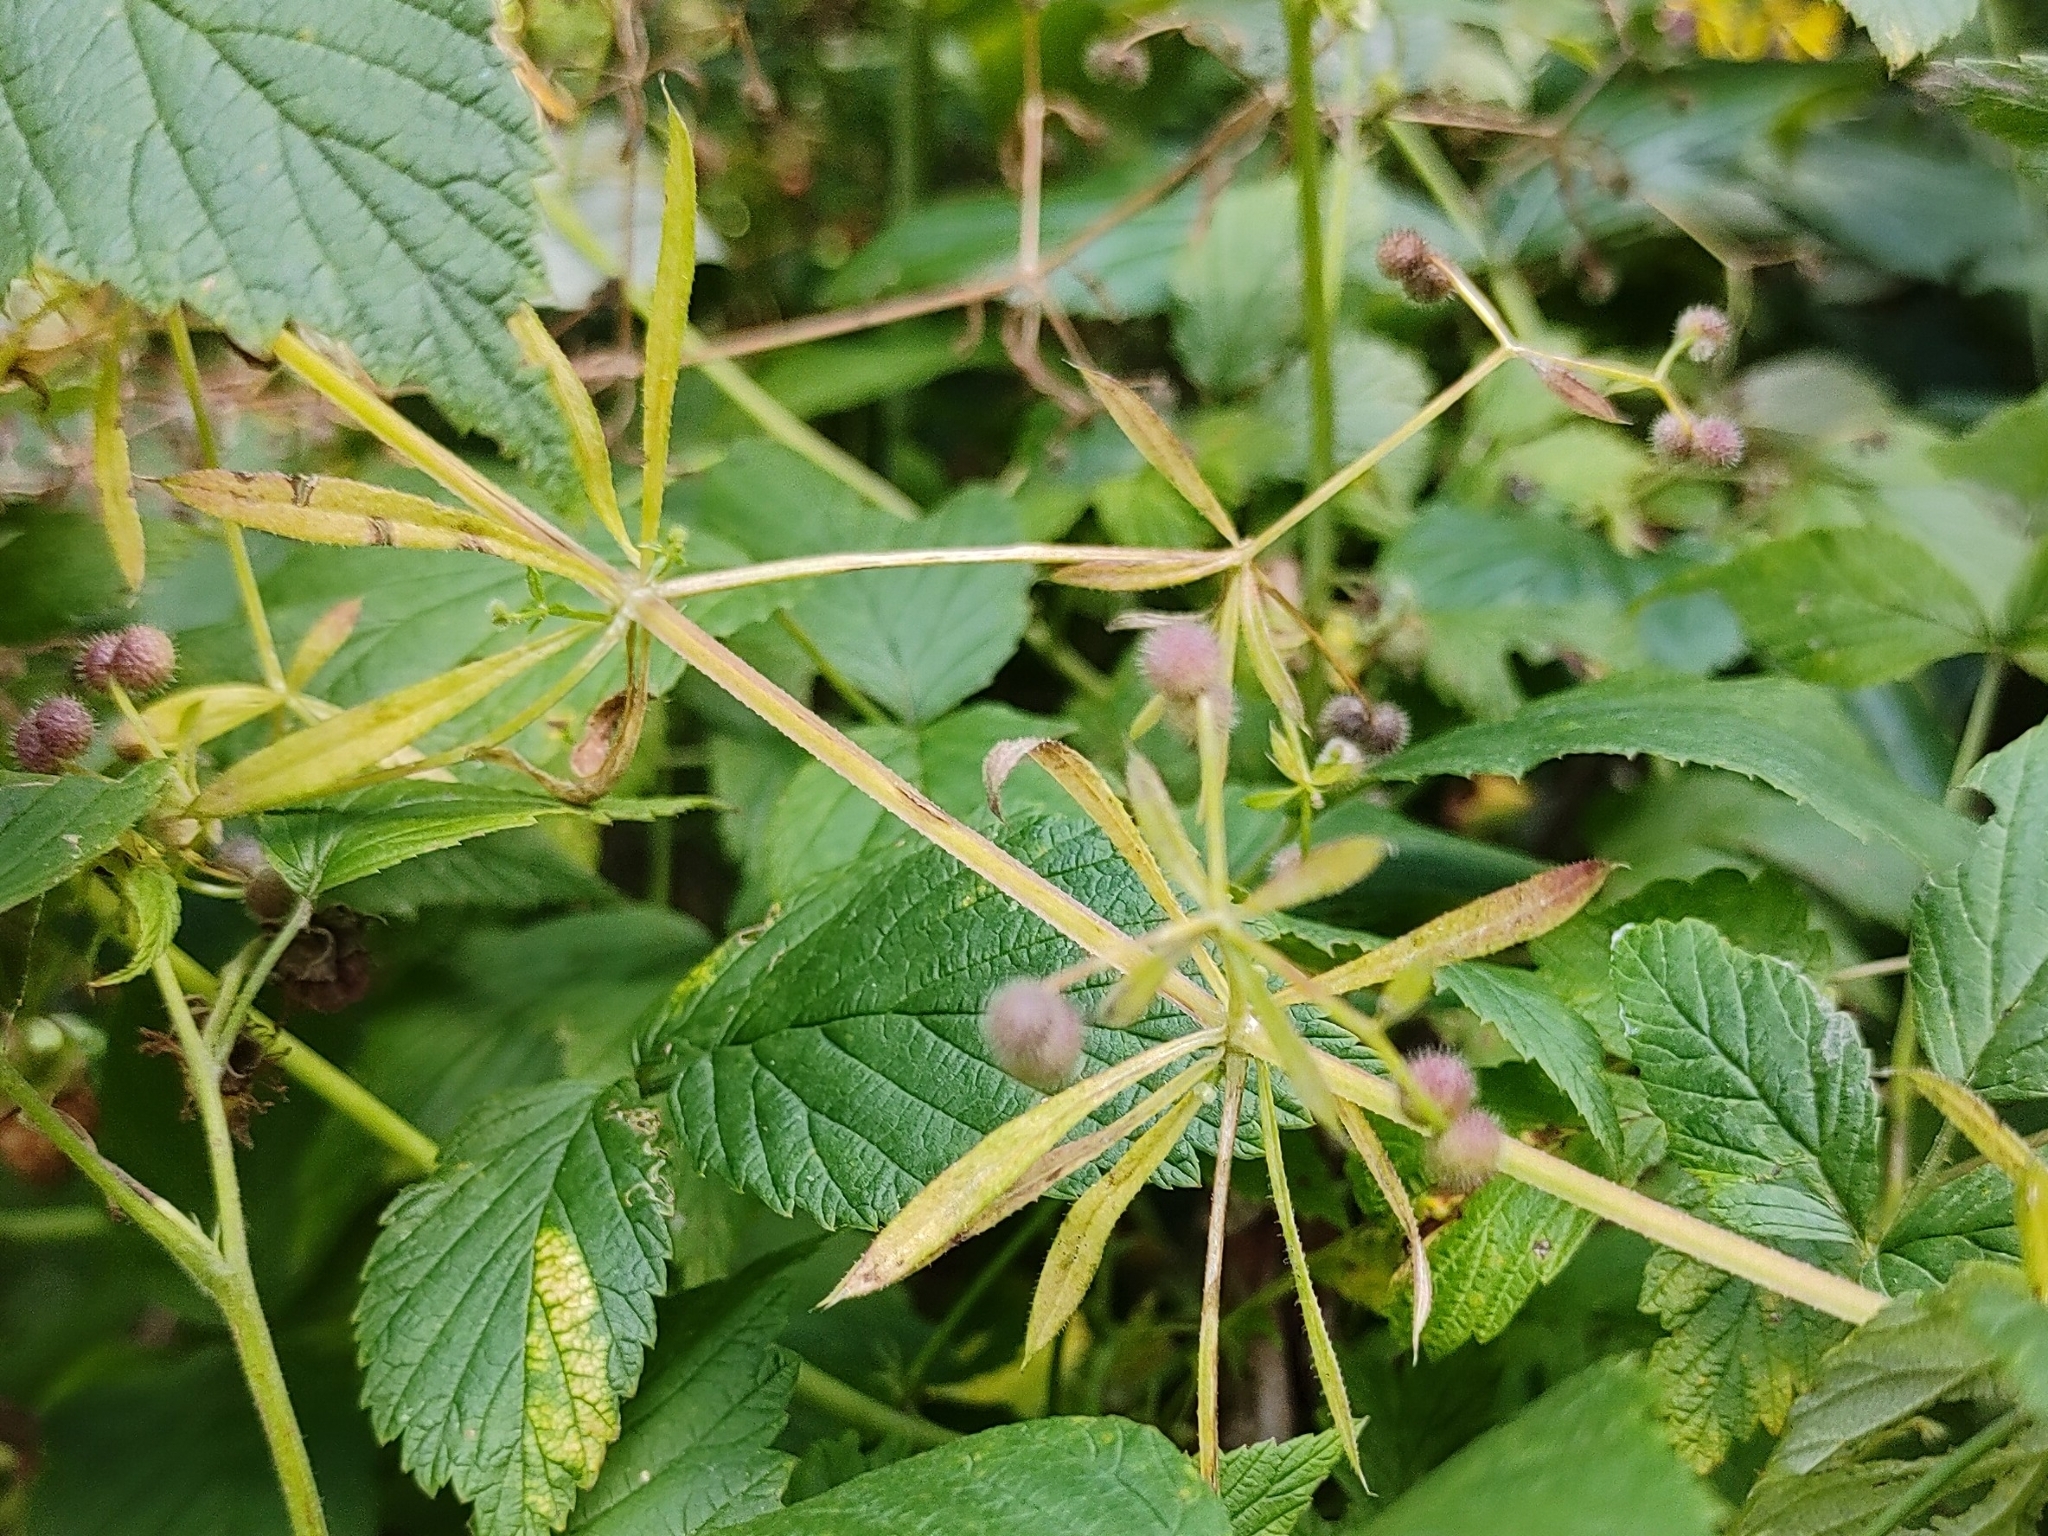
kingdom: Plantae
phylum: Tracheophyta
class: Magnoliopsida
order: Gentianales
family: Rubiaceae
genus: Galium
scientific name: Galium aparine
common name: Cleavers
